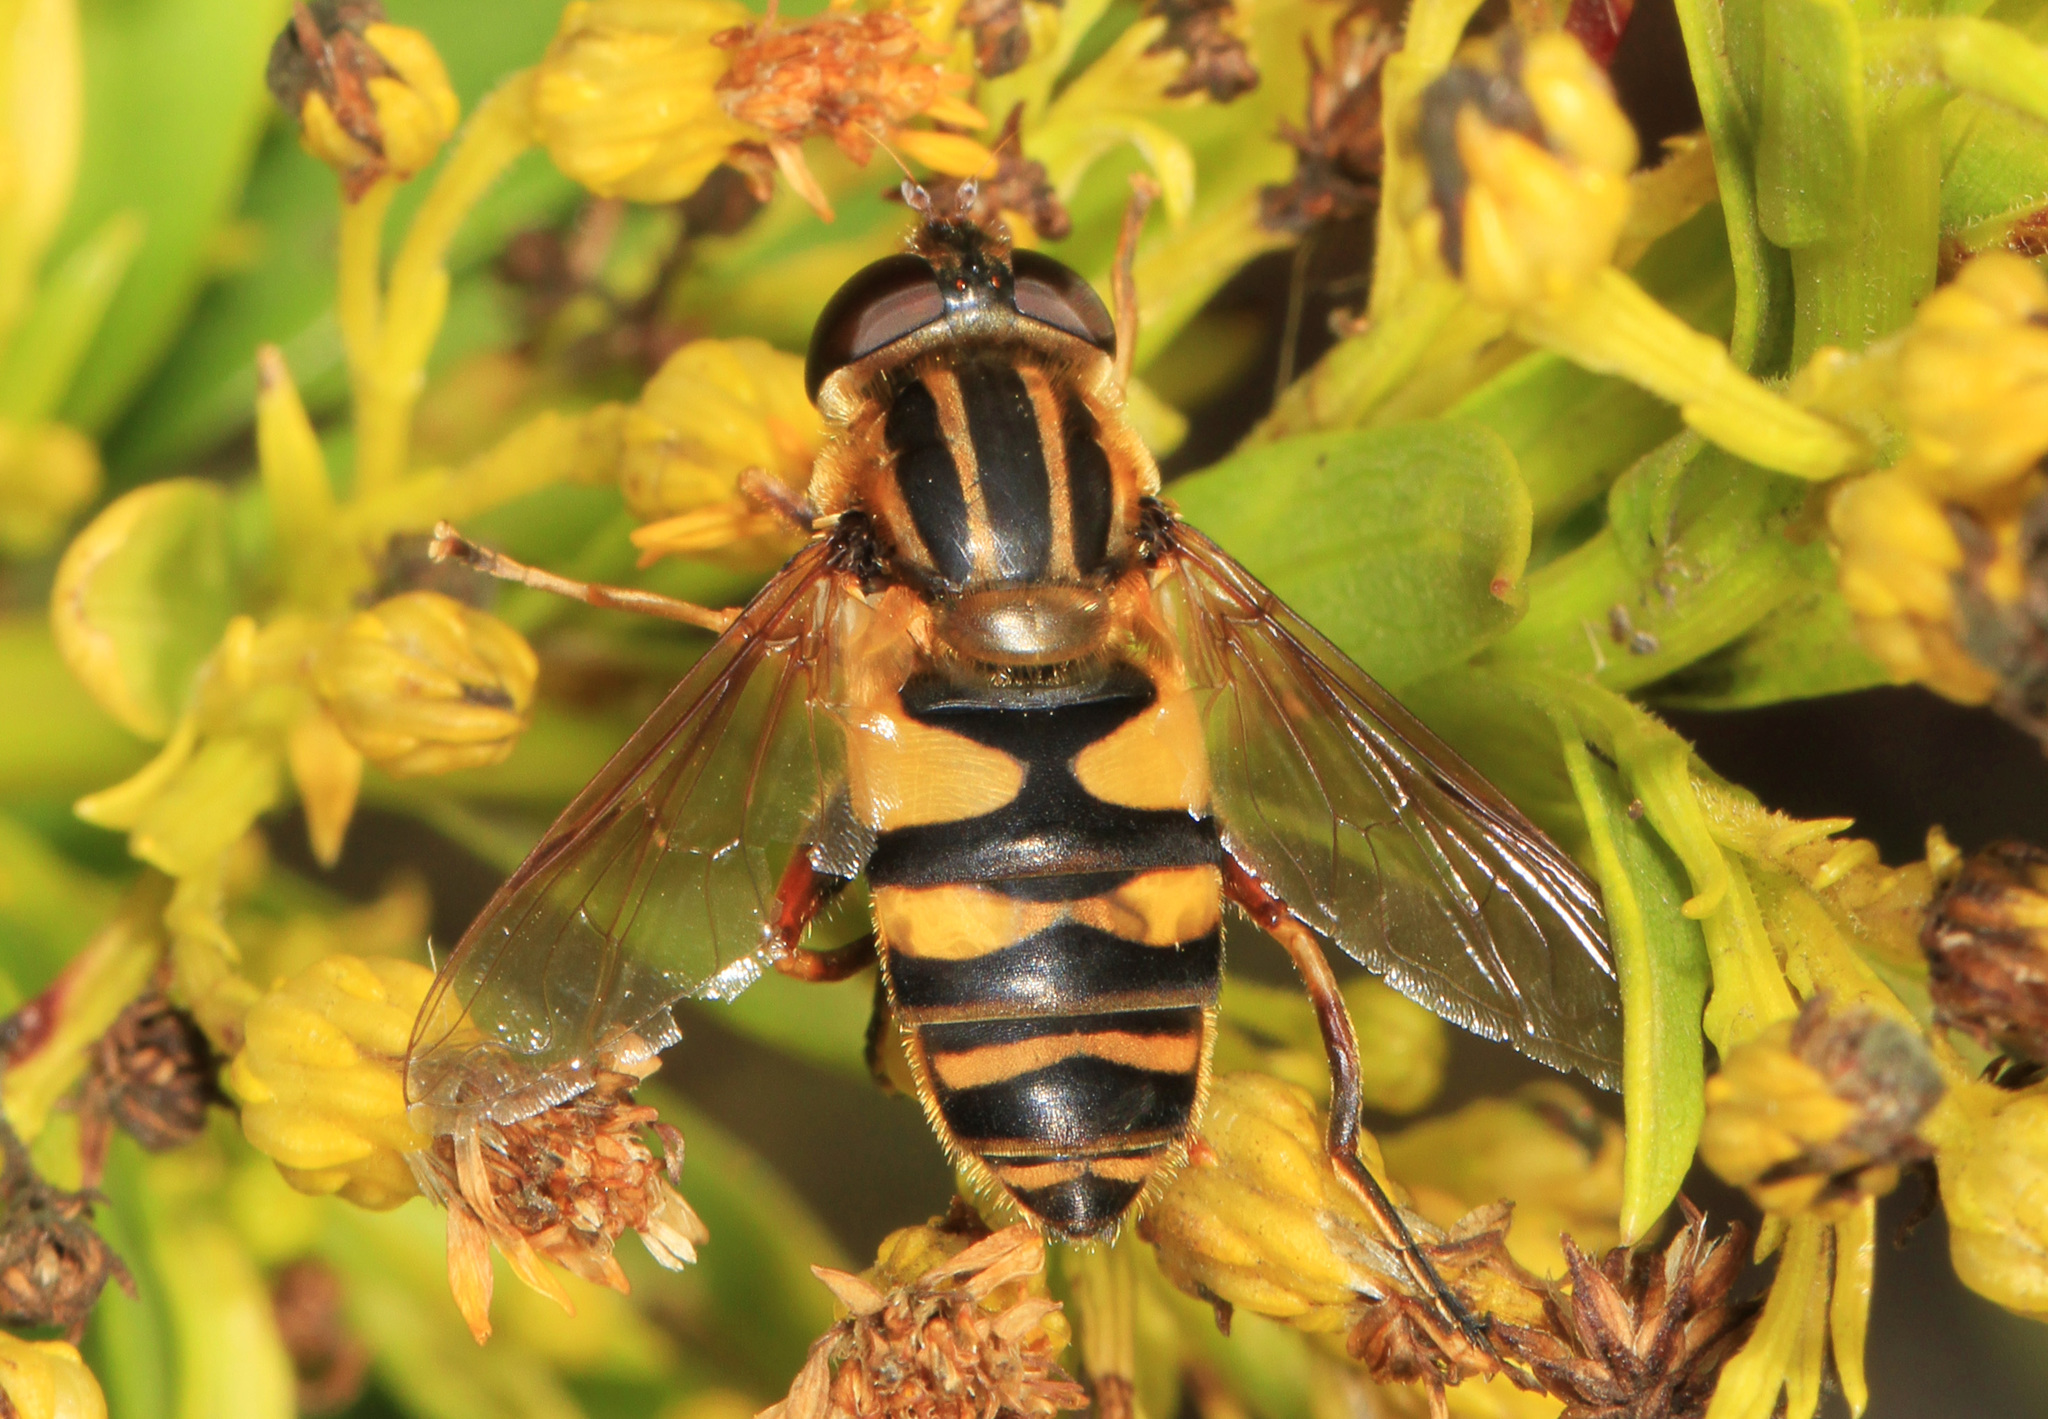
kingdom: Animalia
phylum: Arthropoda
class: Insecta
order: Diptera
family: Syrphidae
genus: Helophilus
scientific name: Helophilus fasciatus
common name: Narrow-headed marsh fly
